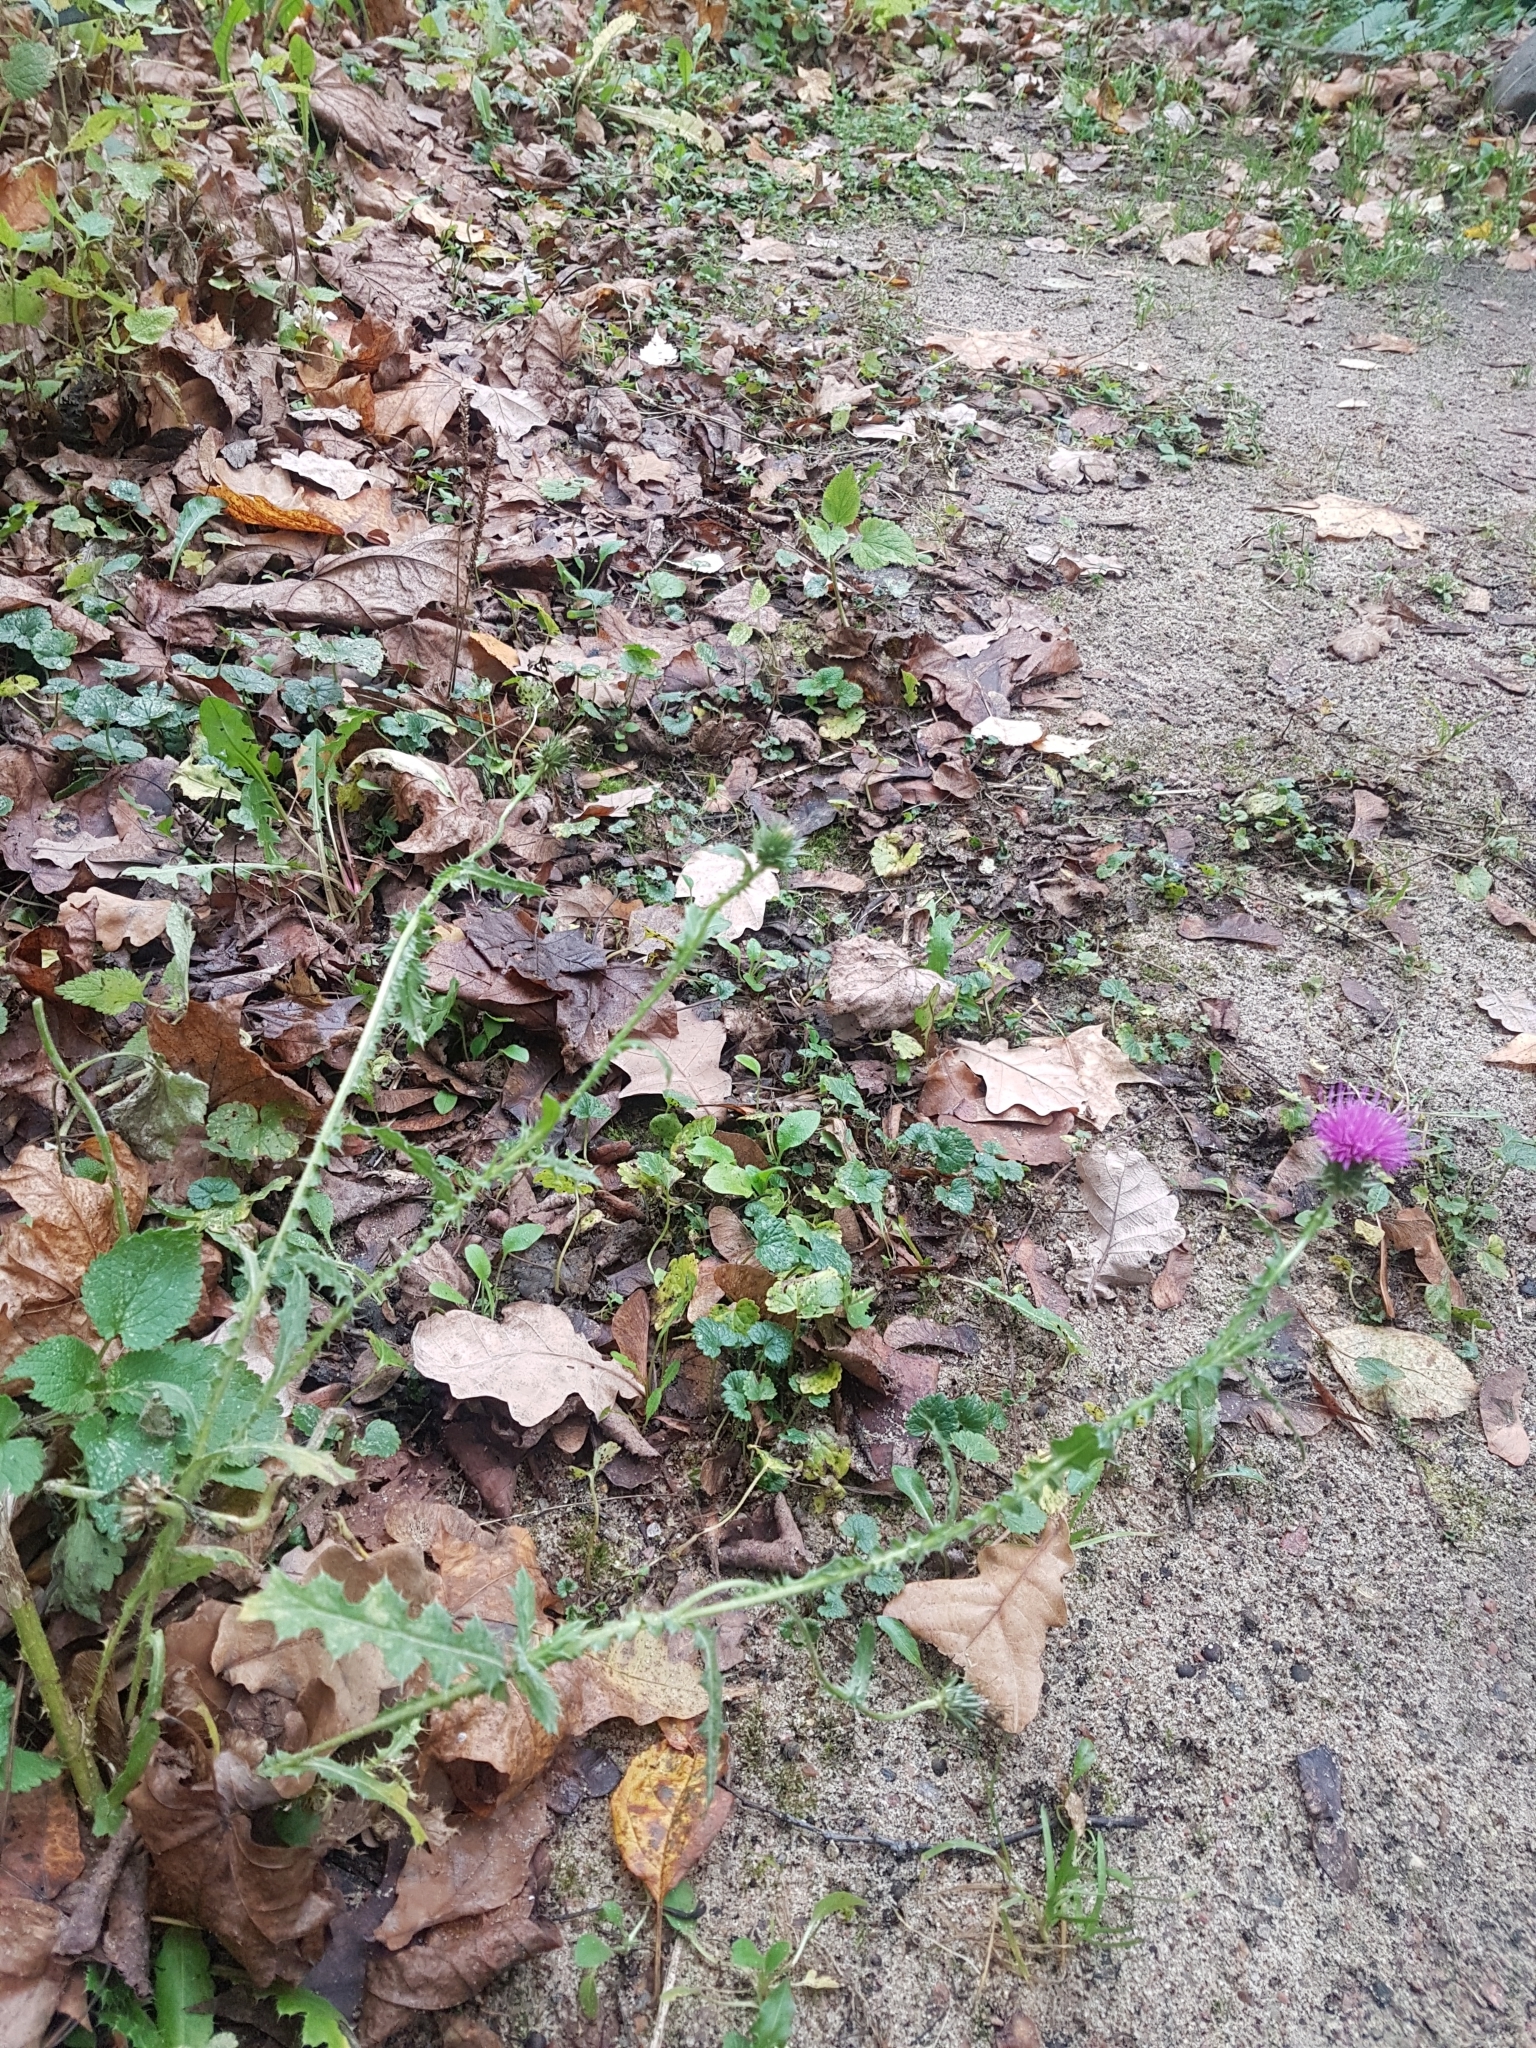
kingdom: Plantae
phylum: Tracheophyta
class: Magnoliopsida
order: Asterales
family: Asteraceae
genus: Carduus
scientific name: Carduus acanthoides
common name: Plumeless thistle
